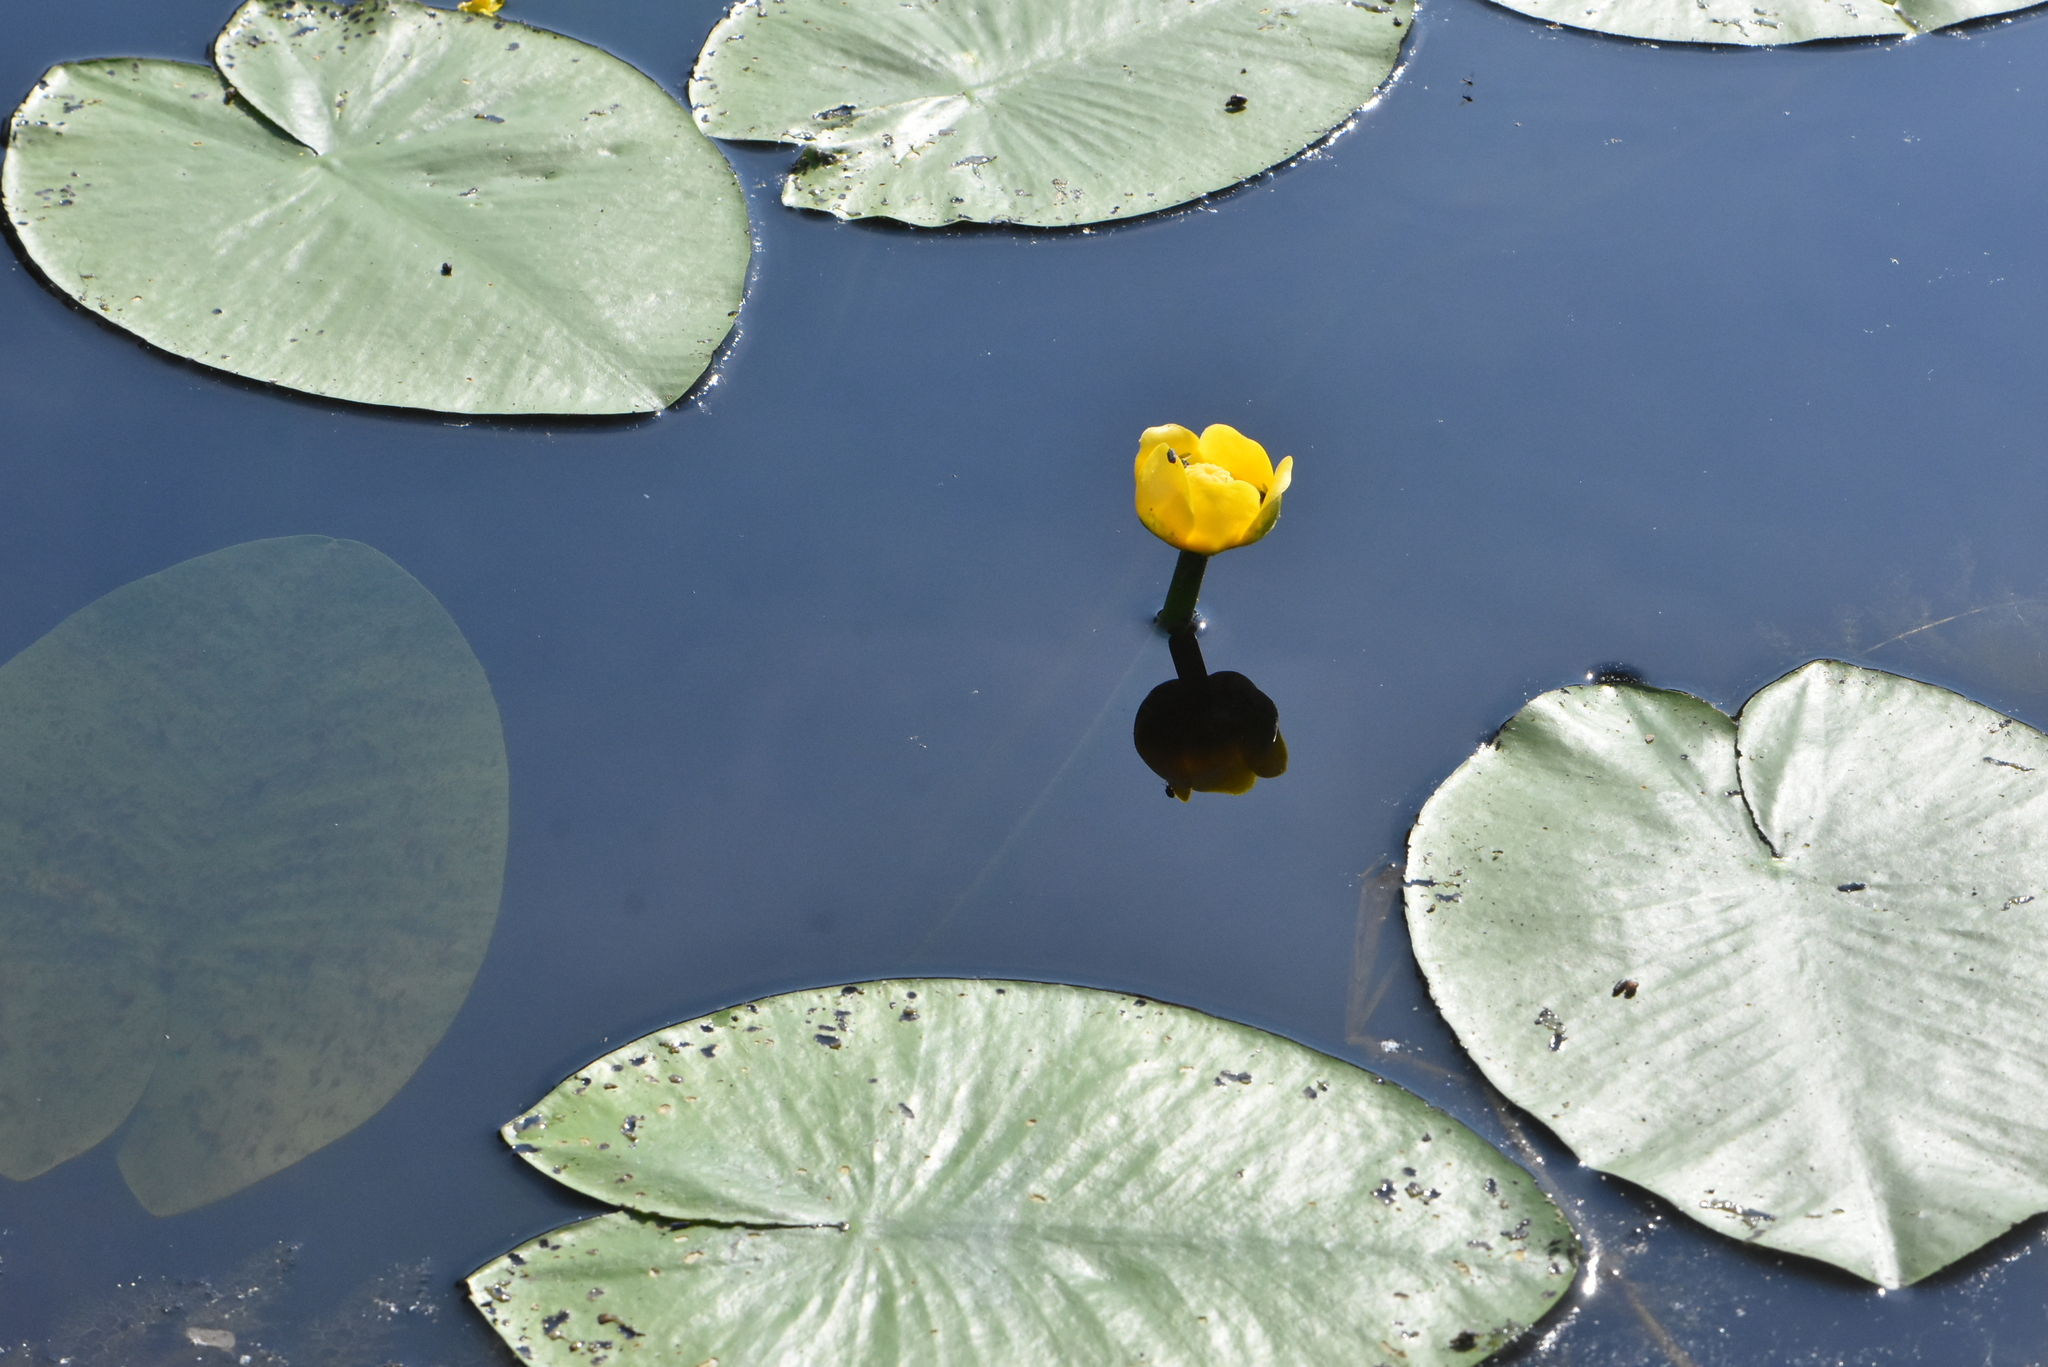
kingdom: Plantae
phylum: Tracheophyta
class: Magnoliopsida
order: Nymphaeales
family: Nymphaeaceae
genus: Nuphar
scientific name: Nuphar lutea
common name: Yellow water-lily
